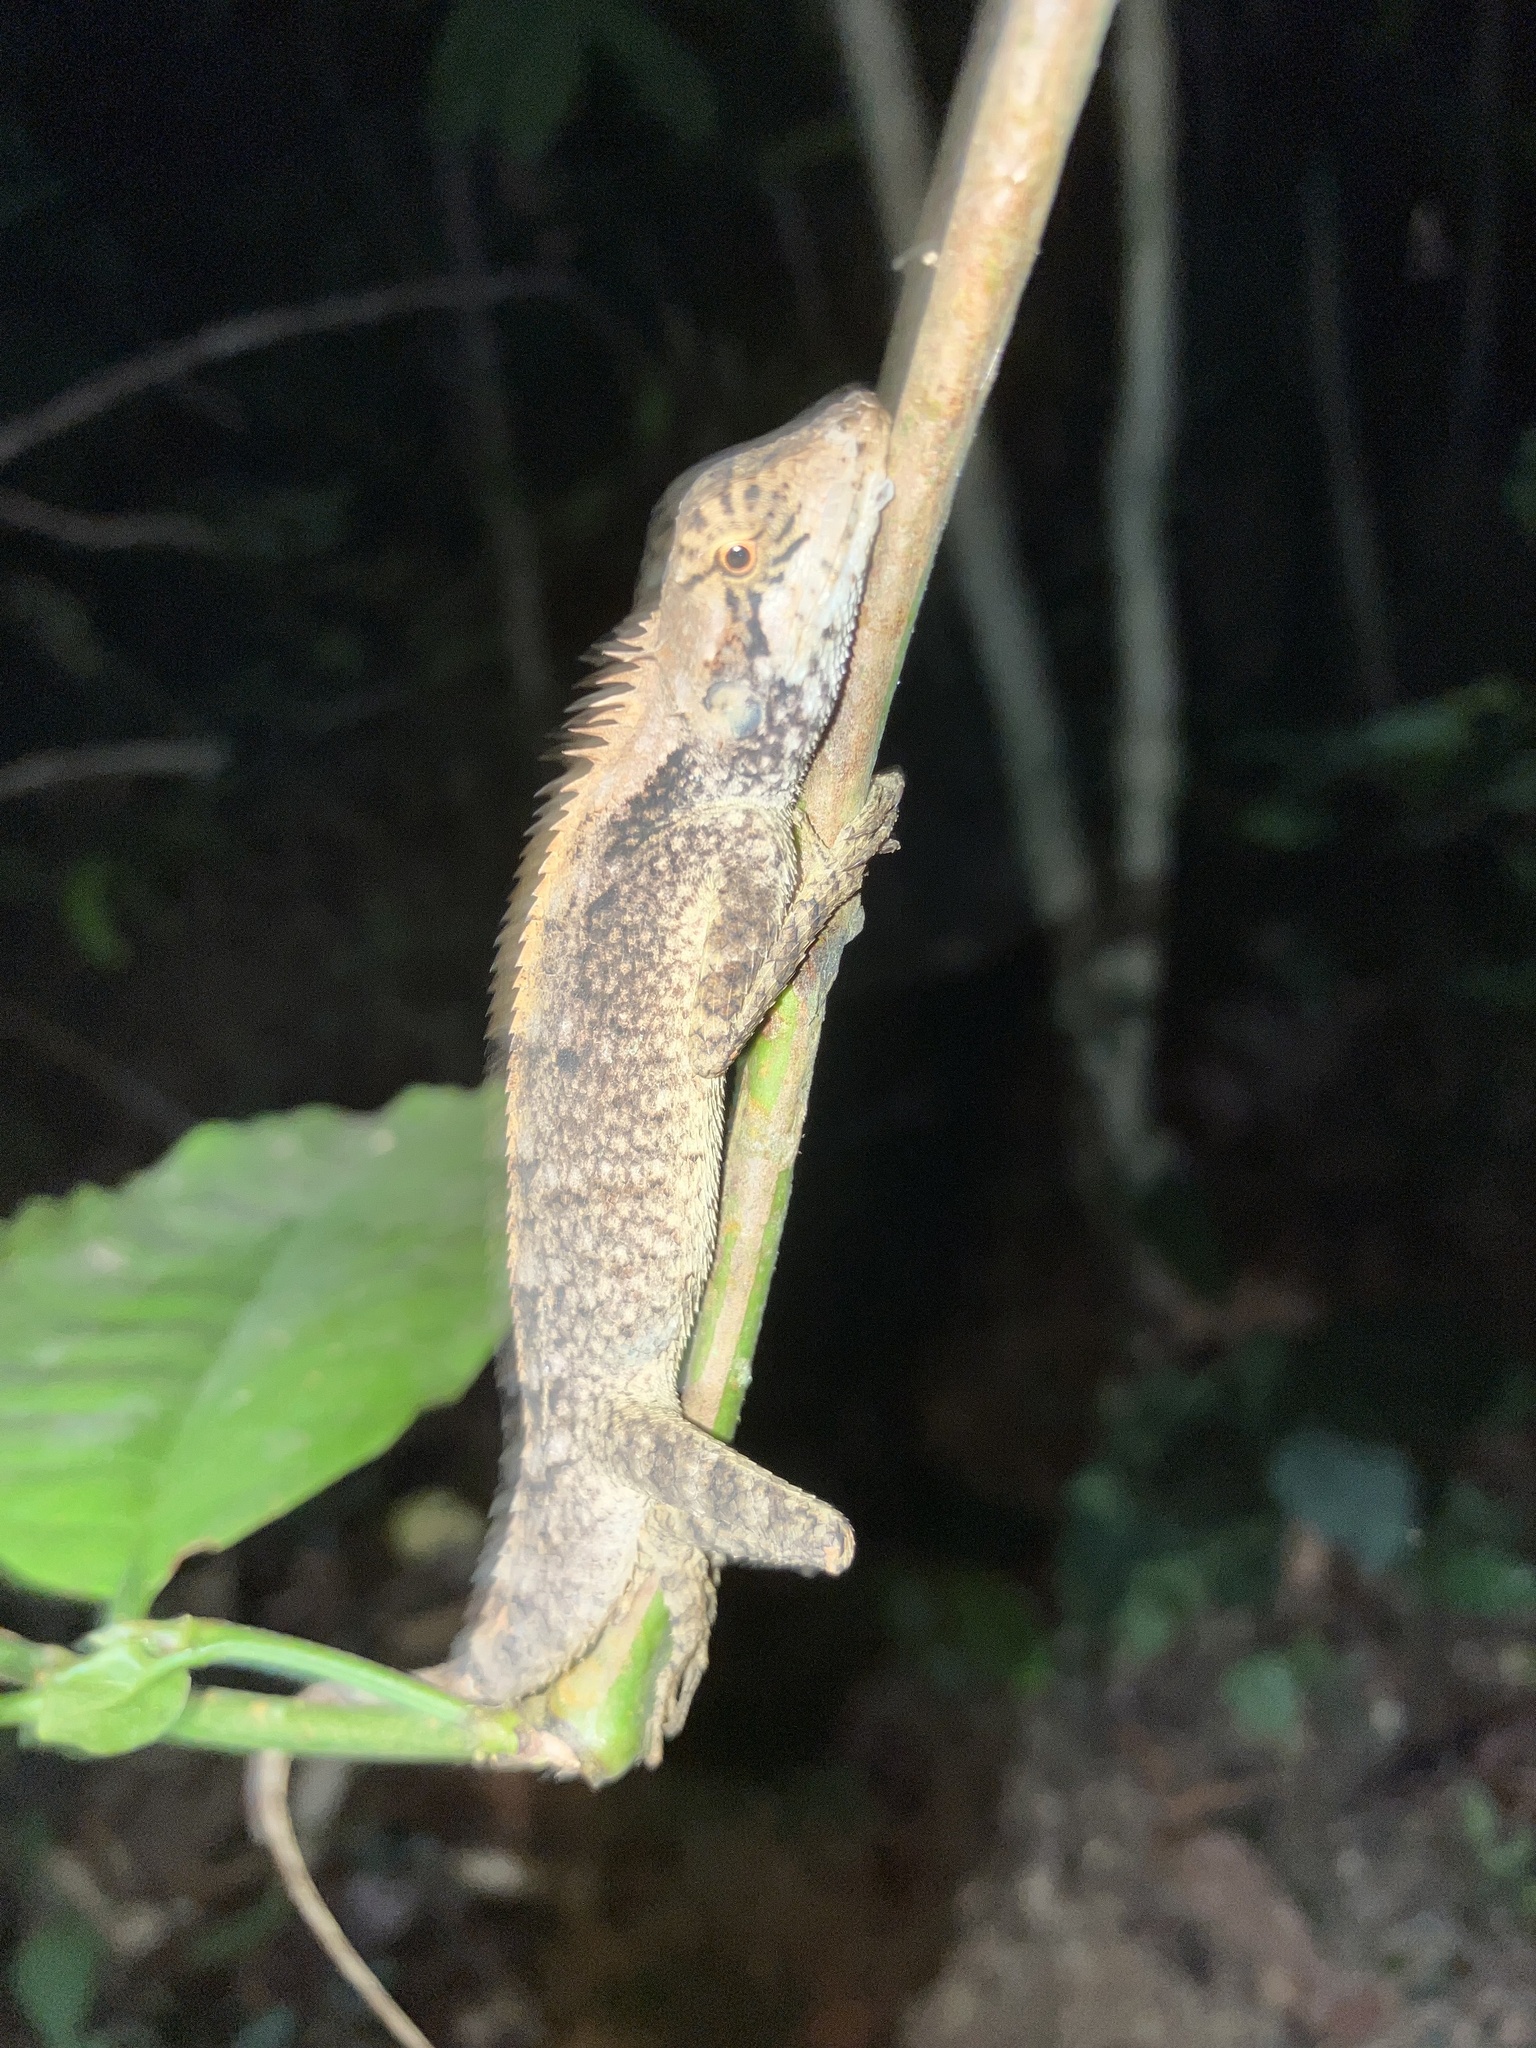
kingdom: Animalia
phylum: Chordata
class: Squamata
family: Agamidae
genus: Monilesaurus
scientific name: Monilesaurus rouxii
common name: Roux's forest lizard
